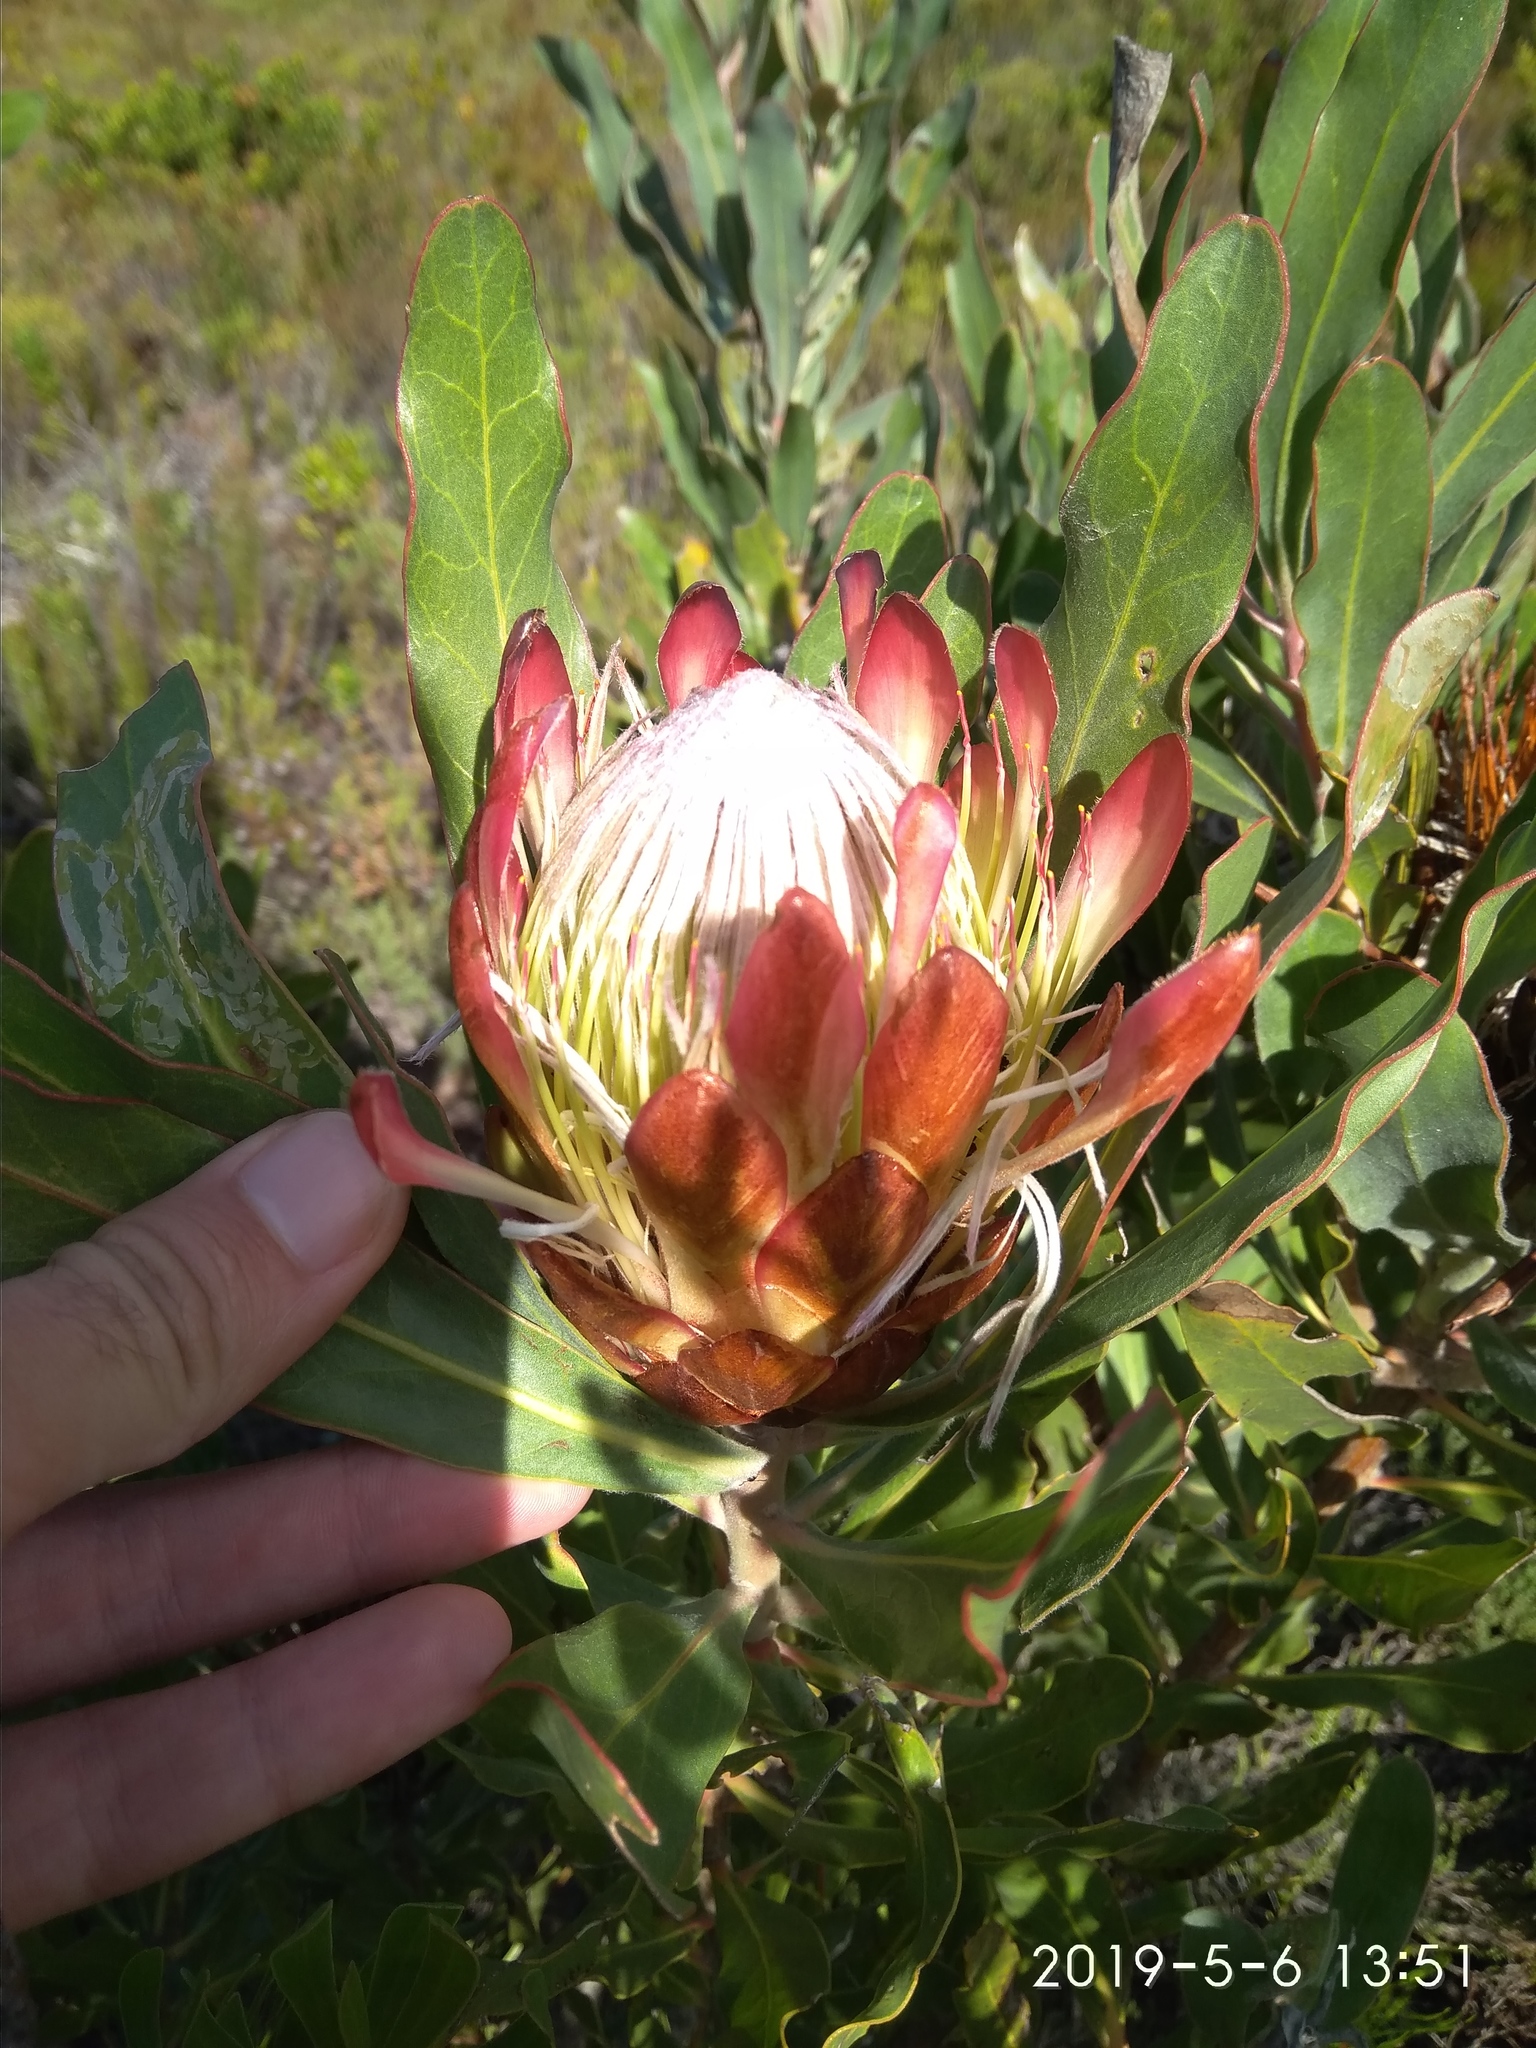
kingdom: Plantae
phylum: Tracheophyta
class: Magnoliopsida
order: Proteales
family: Proteaceae
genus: Protea
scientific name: Protea susannae
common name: Foetid-leaf sugarbush
